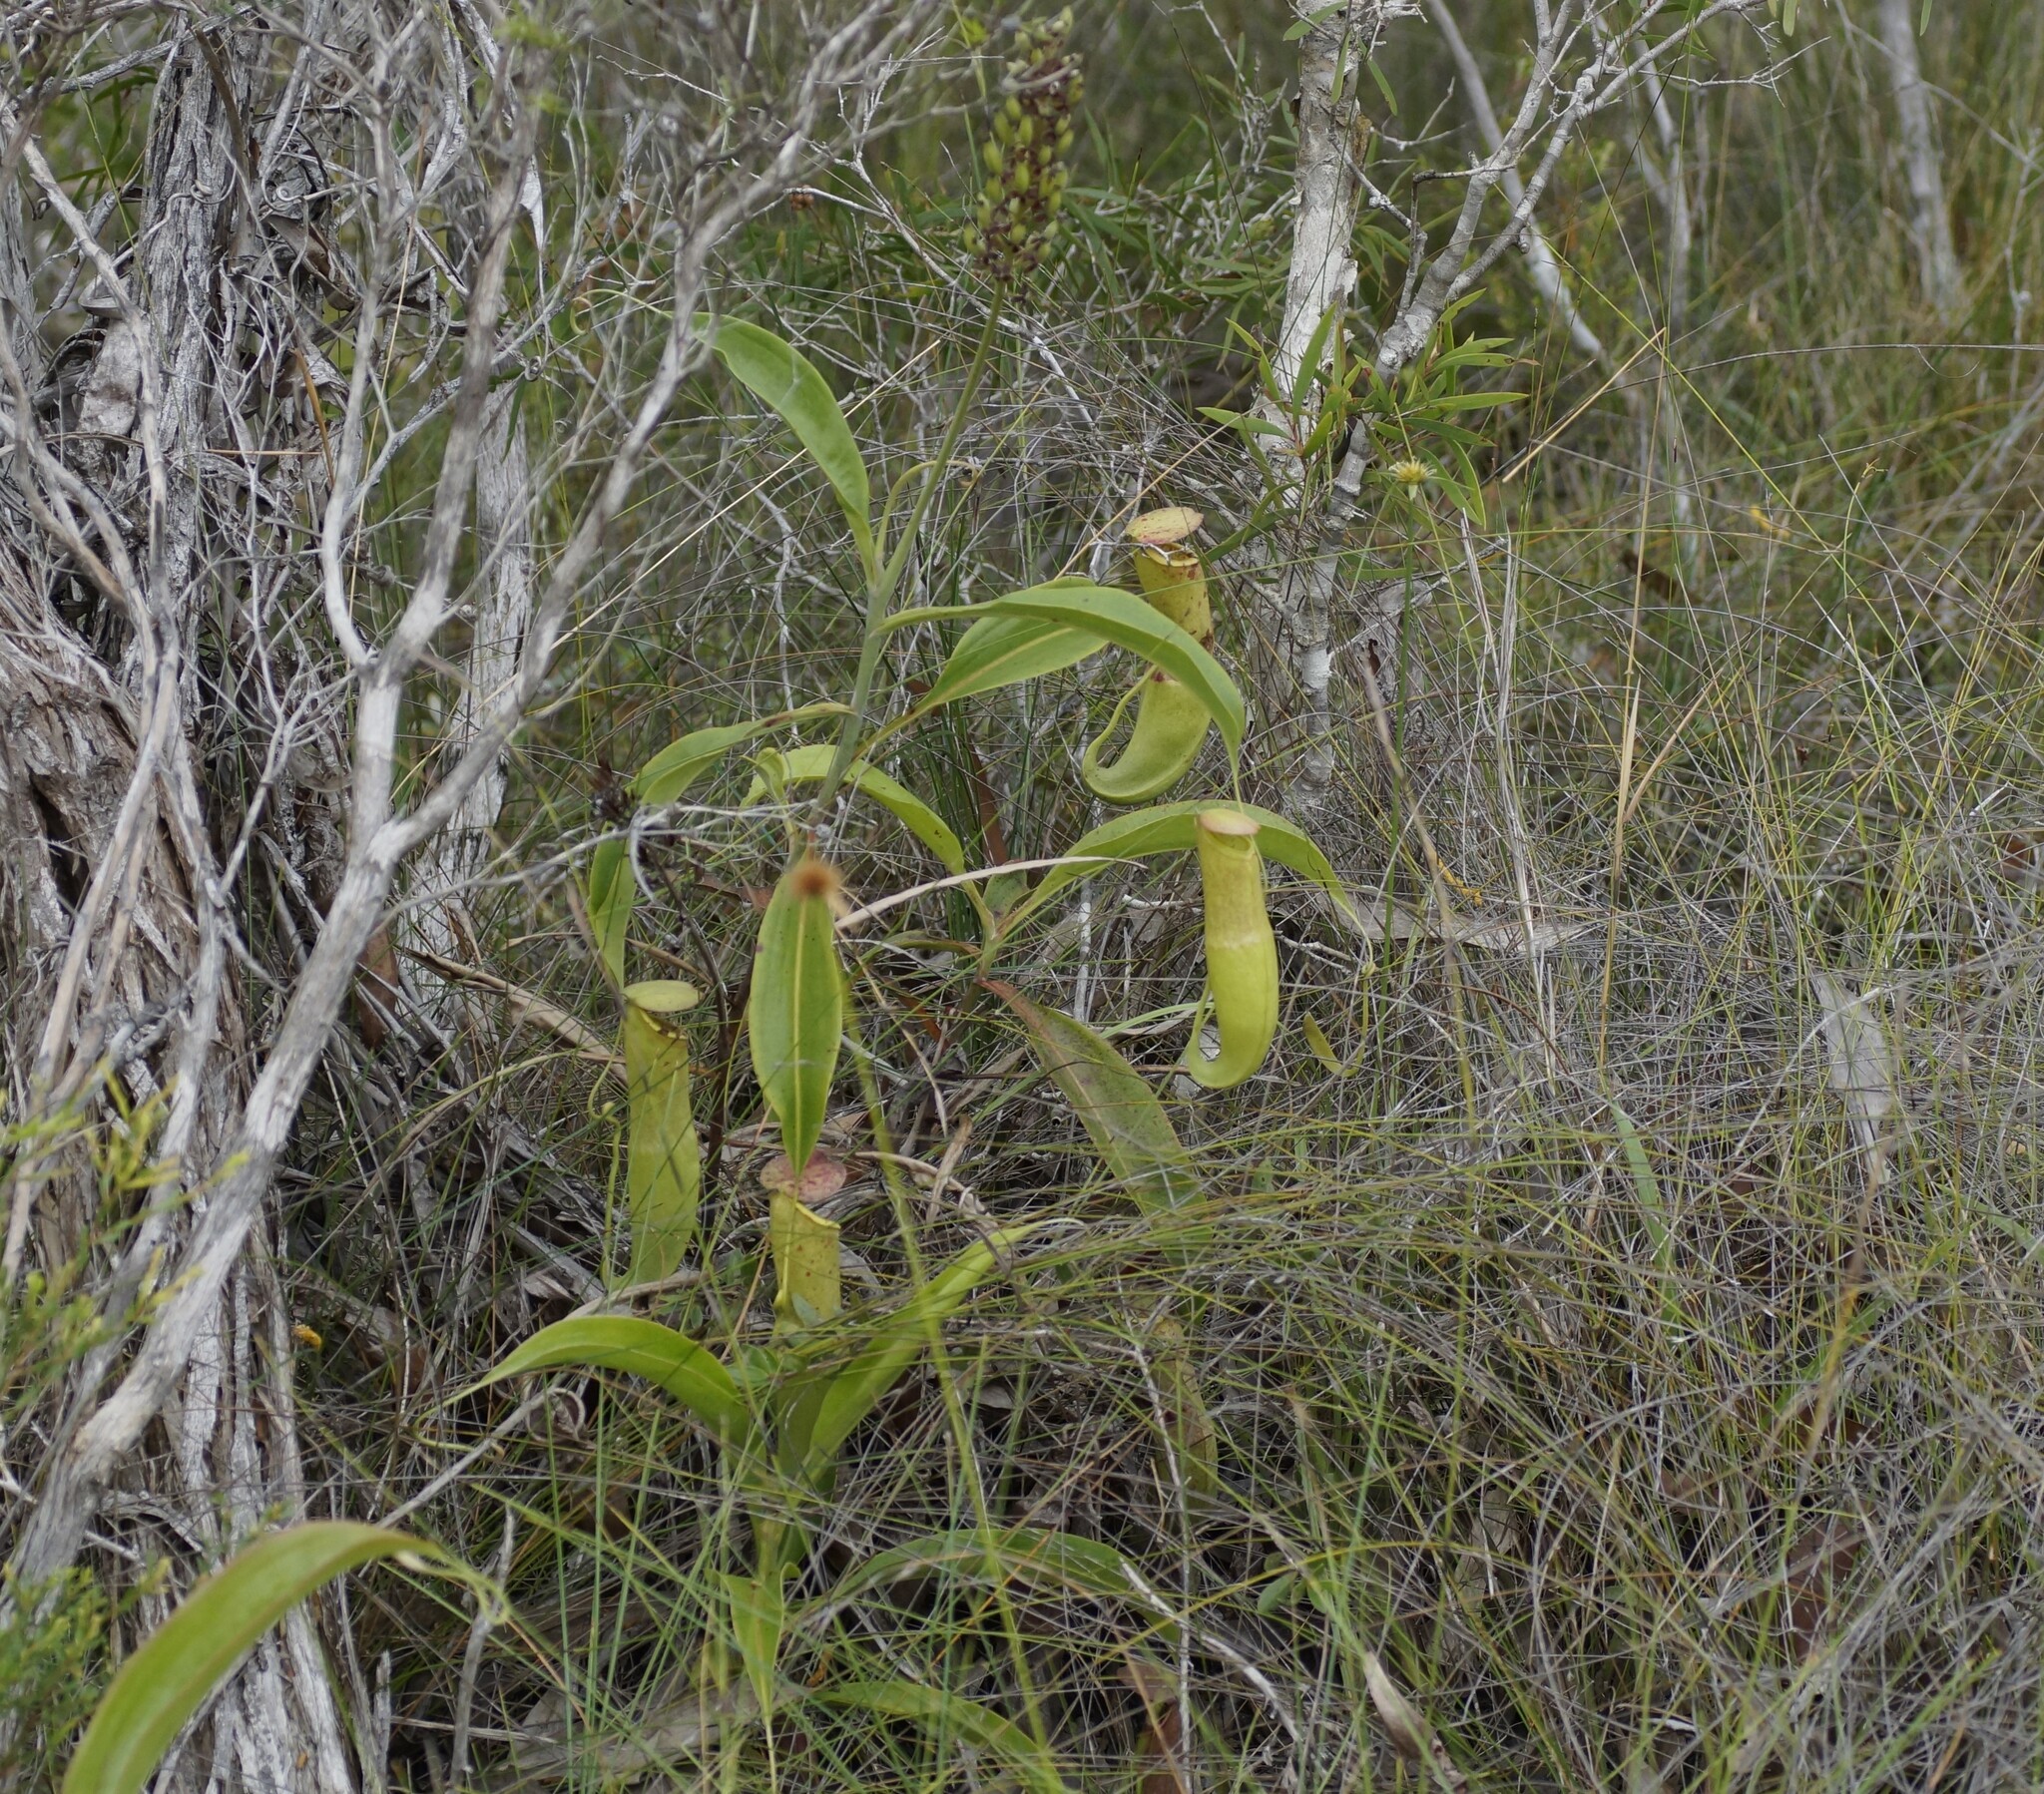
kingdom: Plantae
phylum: Tracheophyta
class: Magnoliopsida
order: Caryophyllales
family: Nepenthaceae
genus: Nepenthes
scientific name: Nepenthes mirabilis
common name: Tropical pitcherplant
